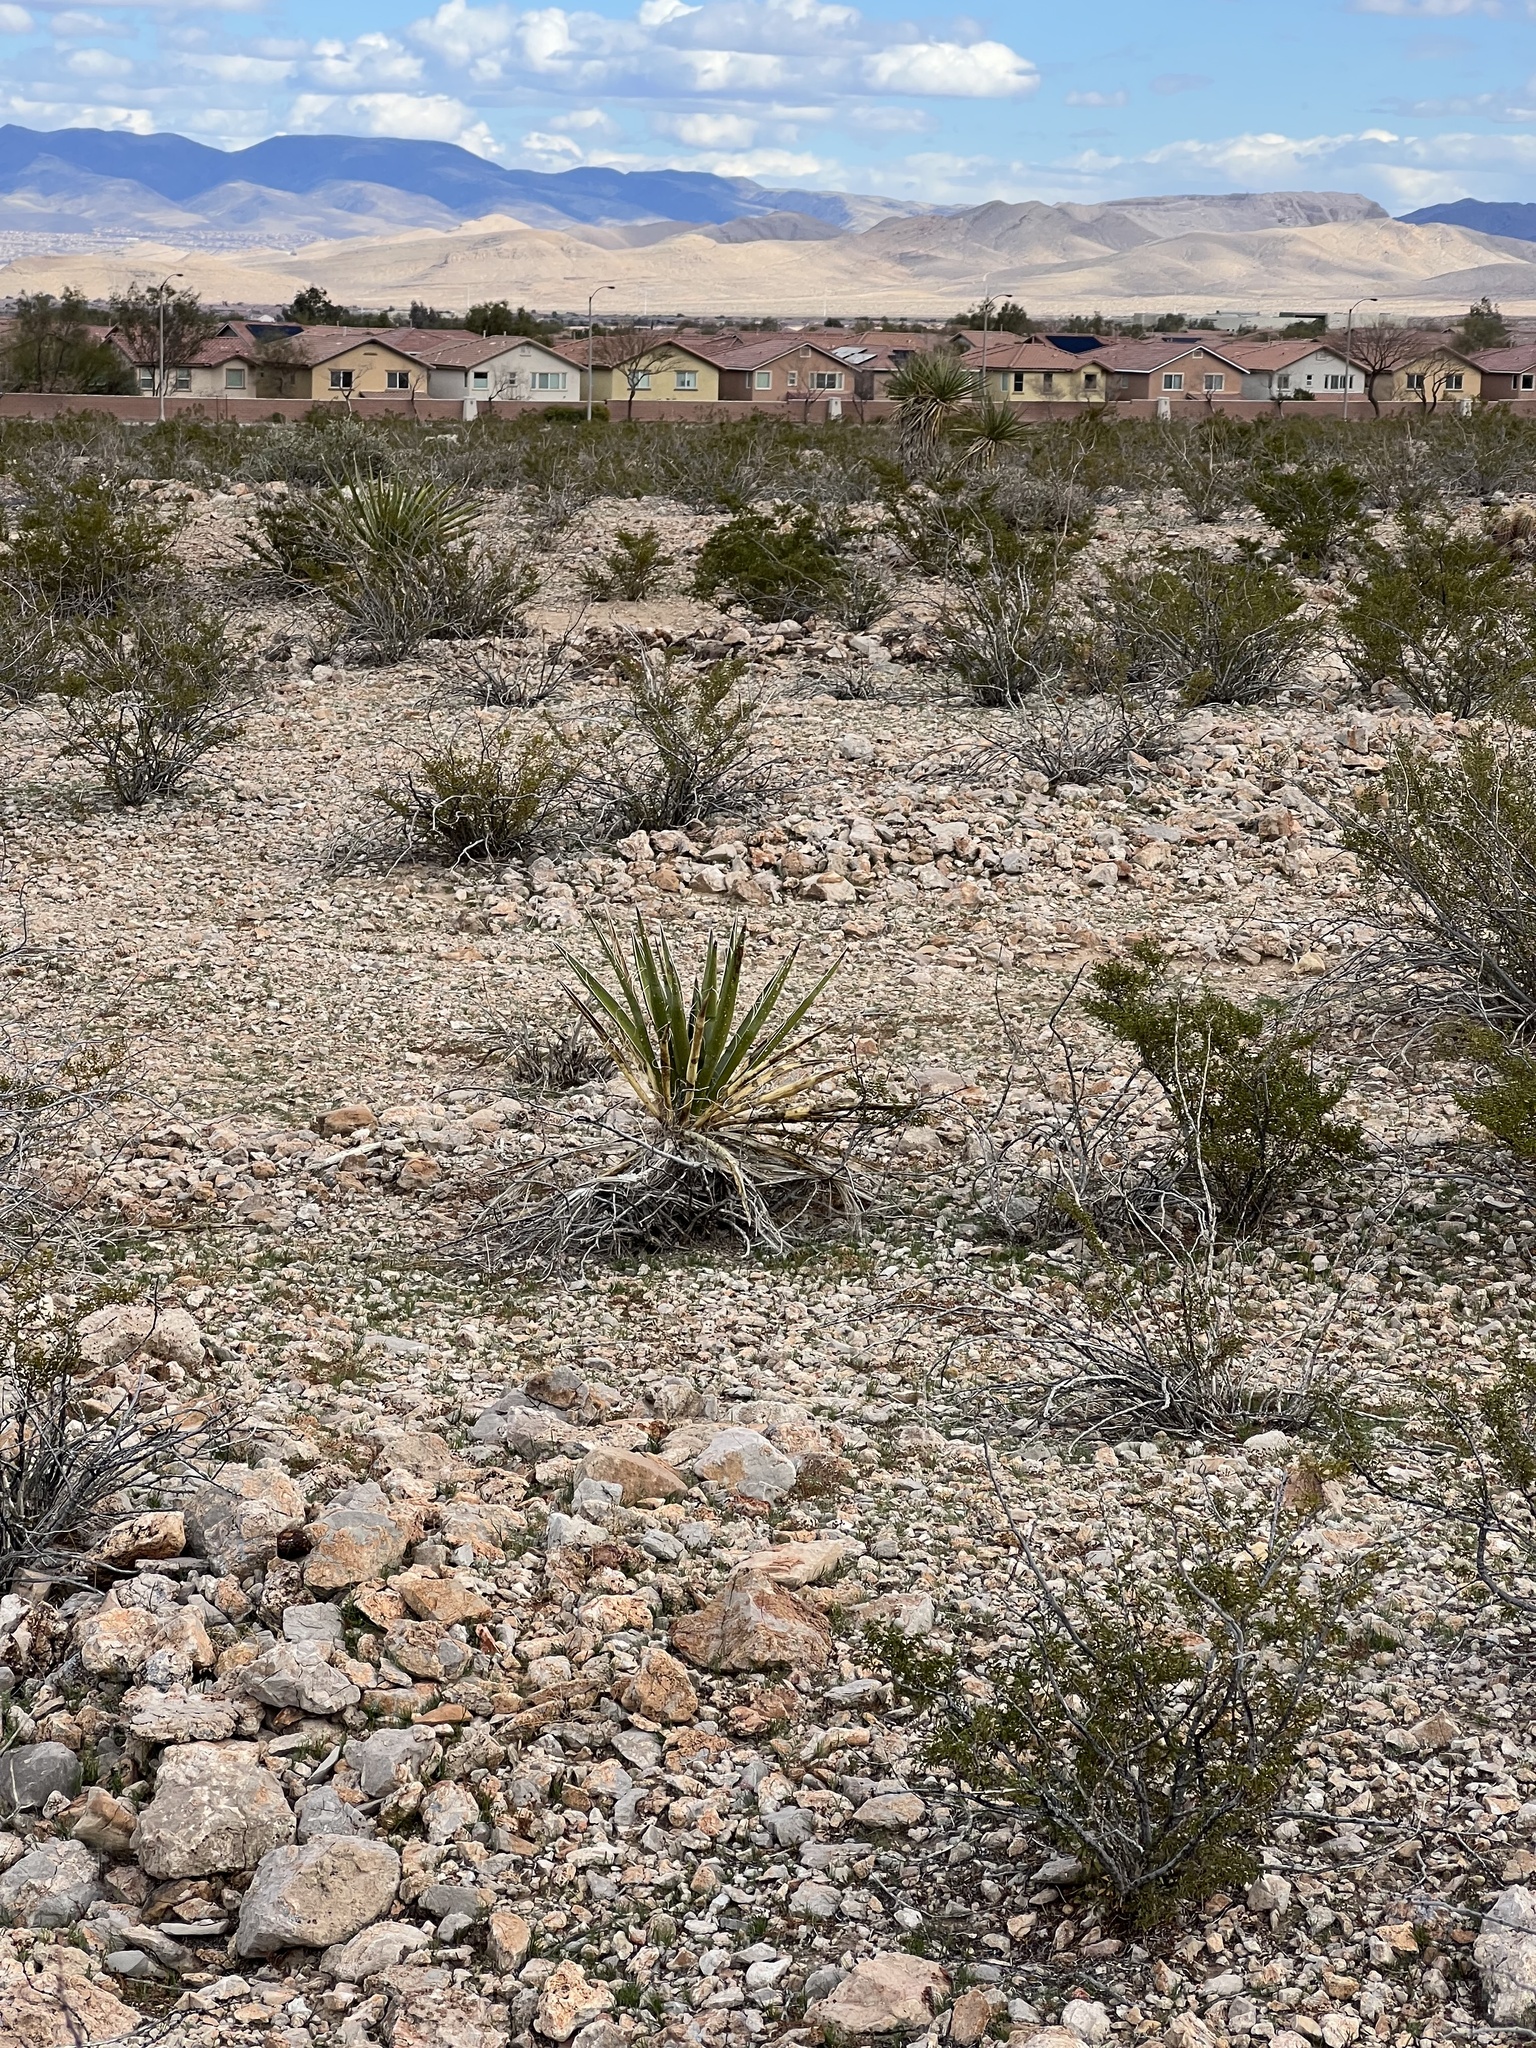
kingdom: Plantae
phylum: Tracheophyta
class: Liliopsida
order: Asparagales
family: Asparagaceae
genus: Yucca
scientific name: Yucca schidigera
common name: Mojave yucca
